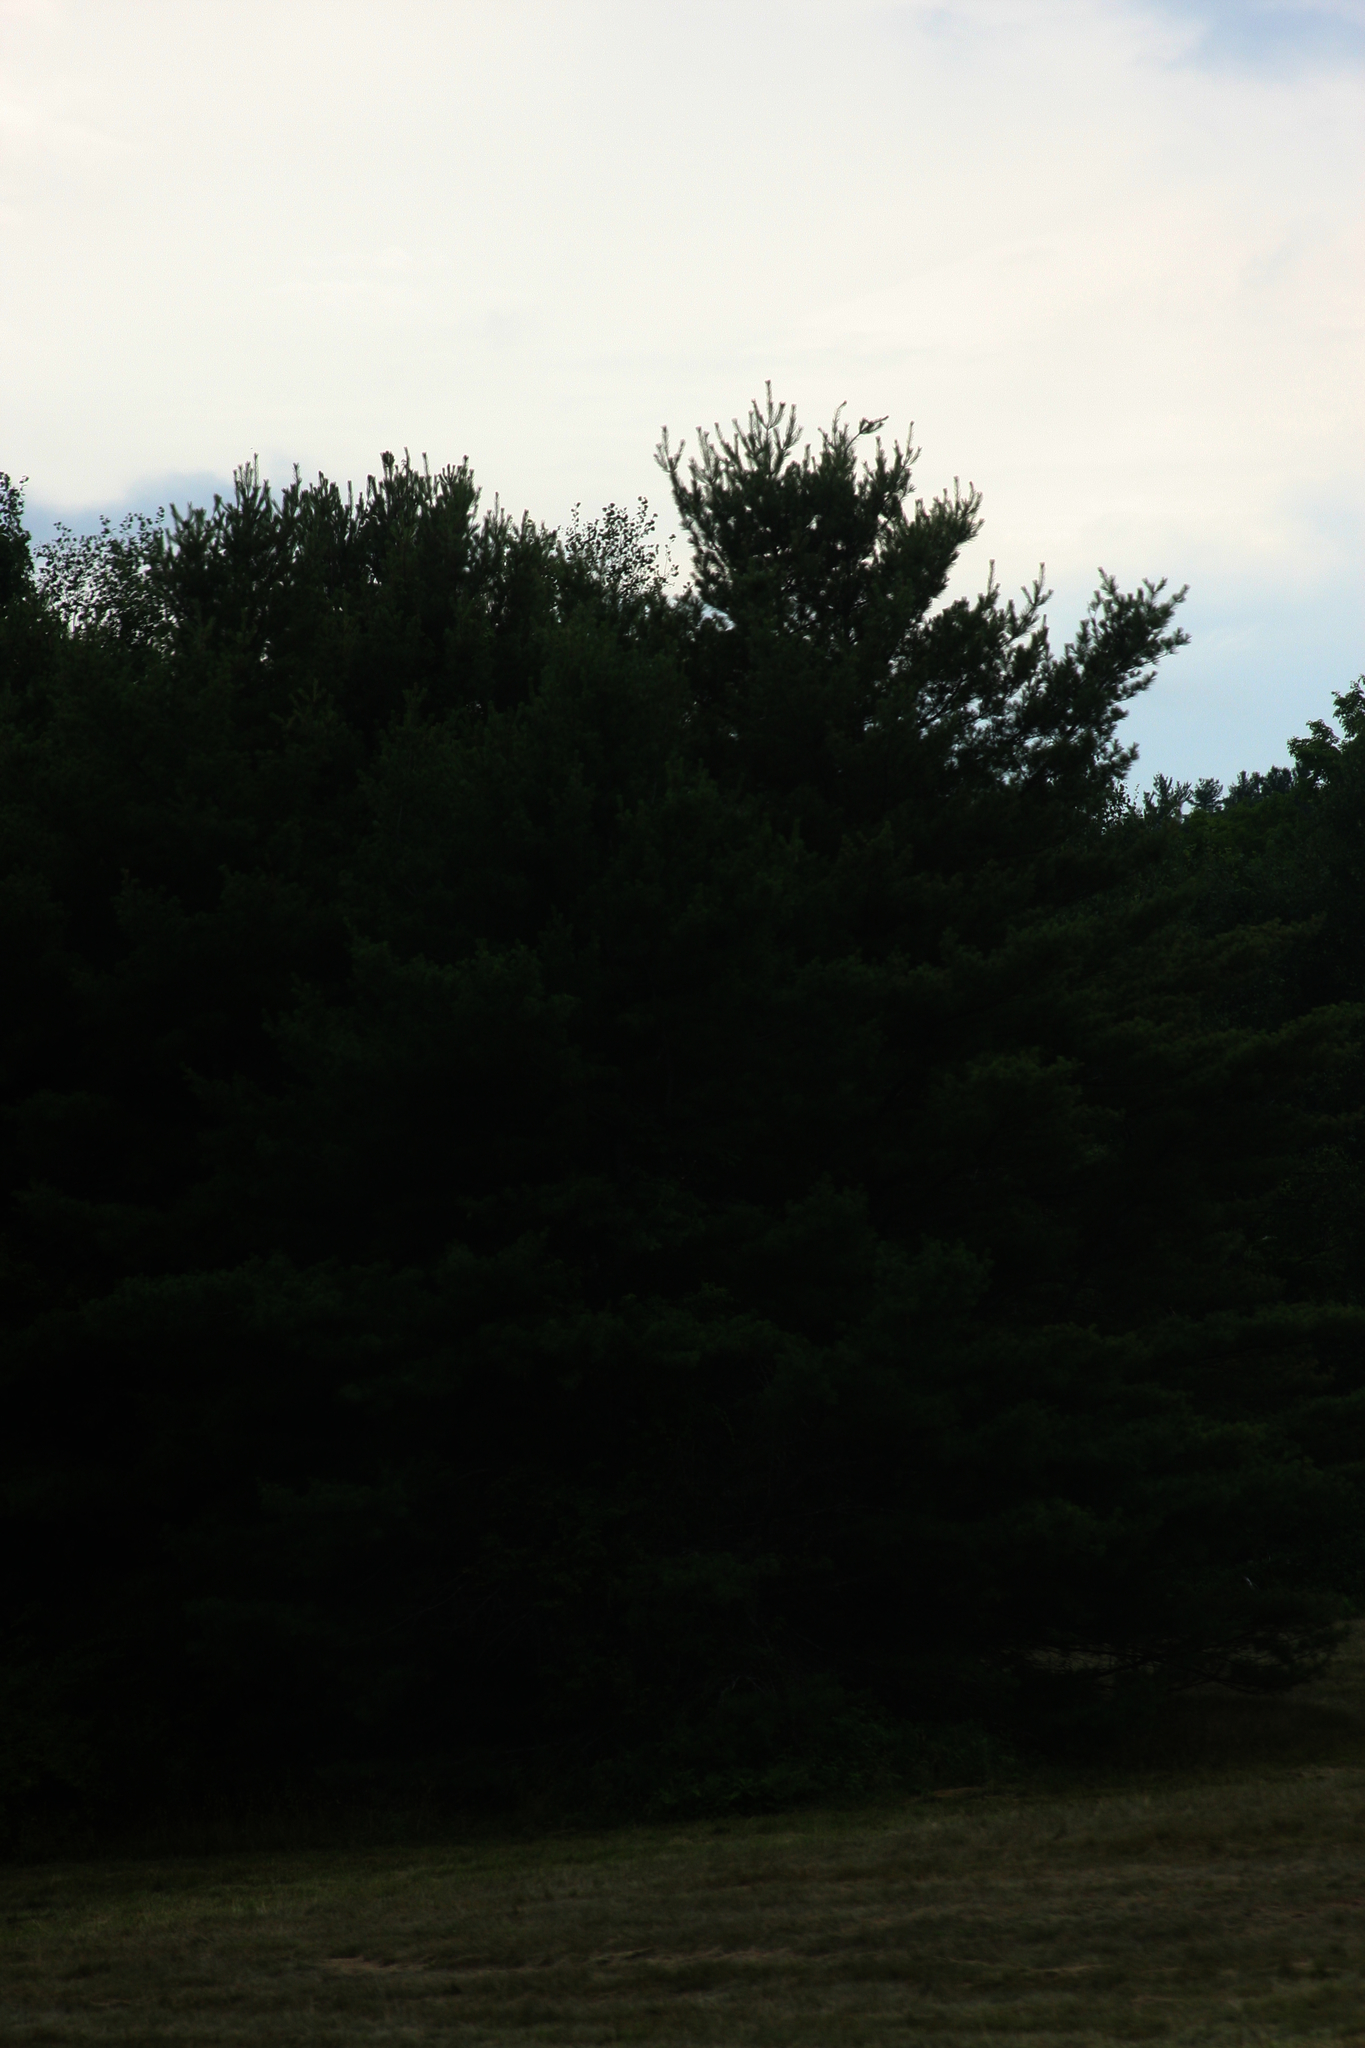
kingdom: Plantae
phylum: Tracheophyta
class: Pinopsida
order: Pinales
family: Pinaceae
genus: Pinus
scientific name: Pinus strobus
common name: Weymouth pine
